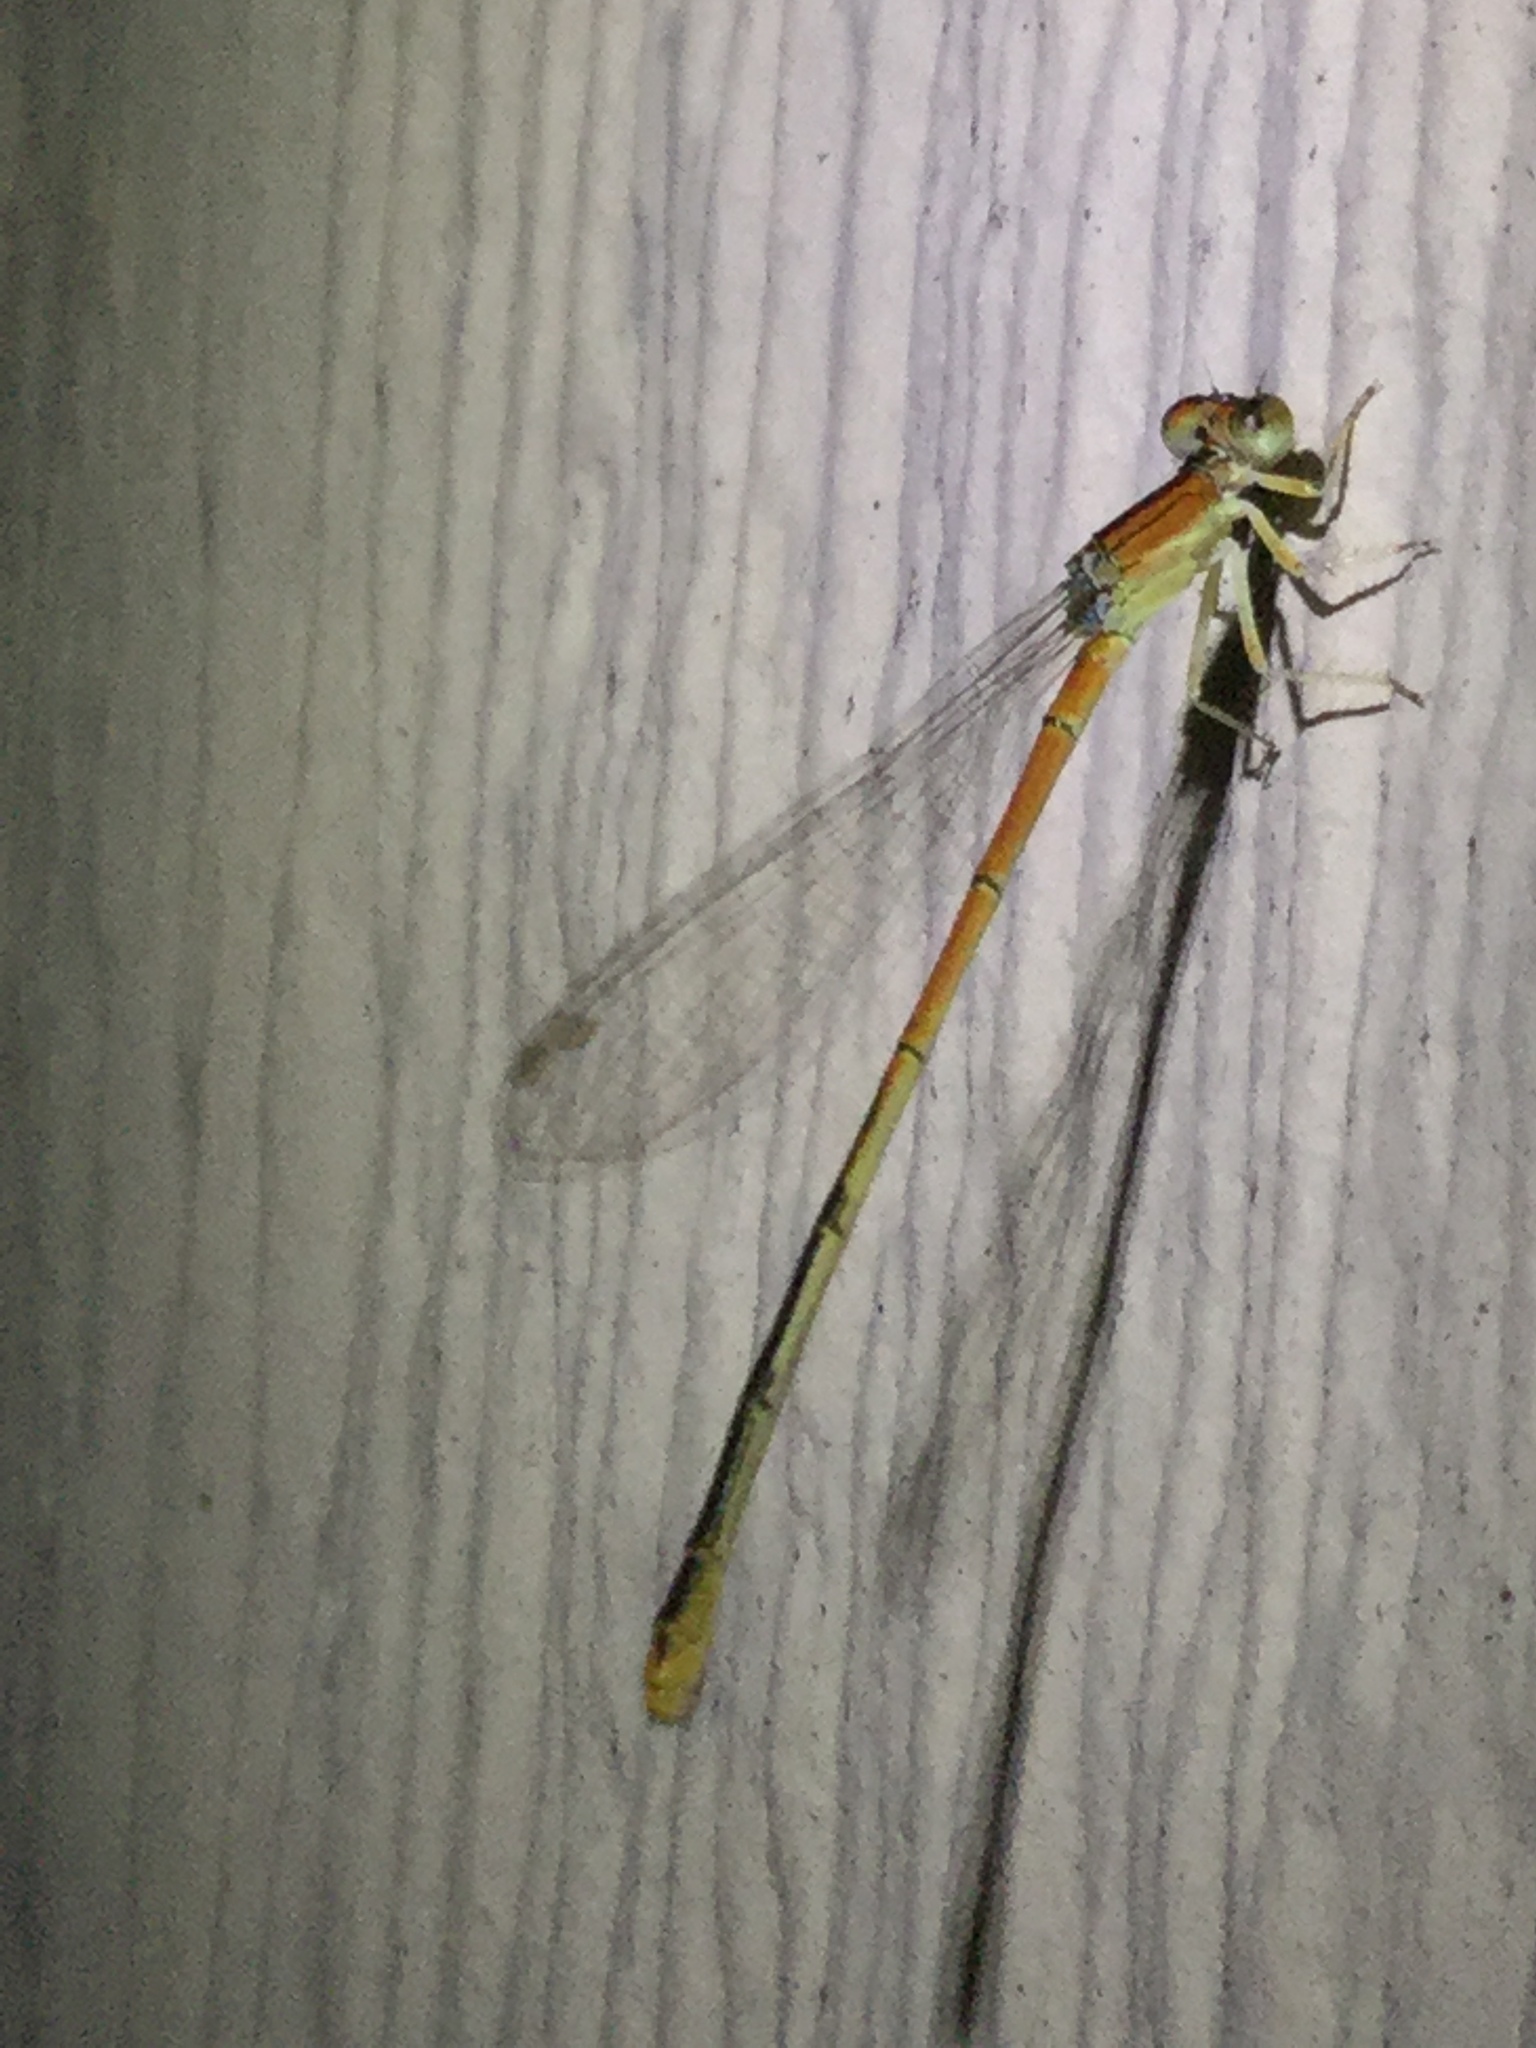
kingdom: Animalia
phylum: Arthropoda
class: Insecta
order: Odonata
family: Coenagrionidae
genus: Ischnura
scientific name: Ischnura hastata
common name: Citrine forktail
